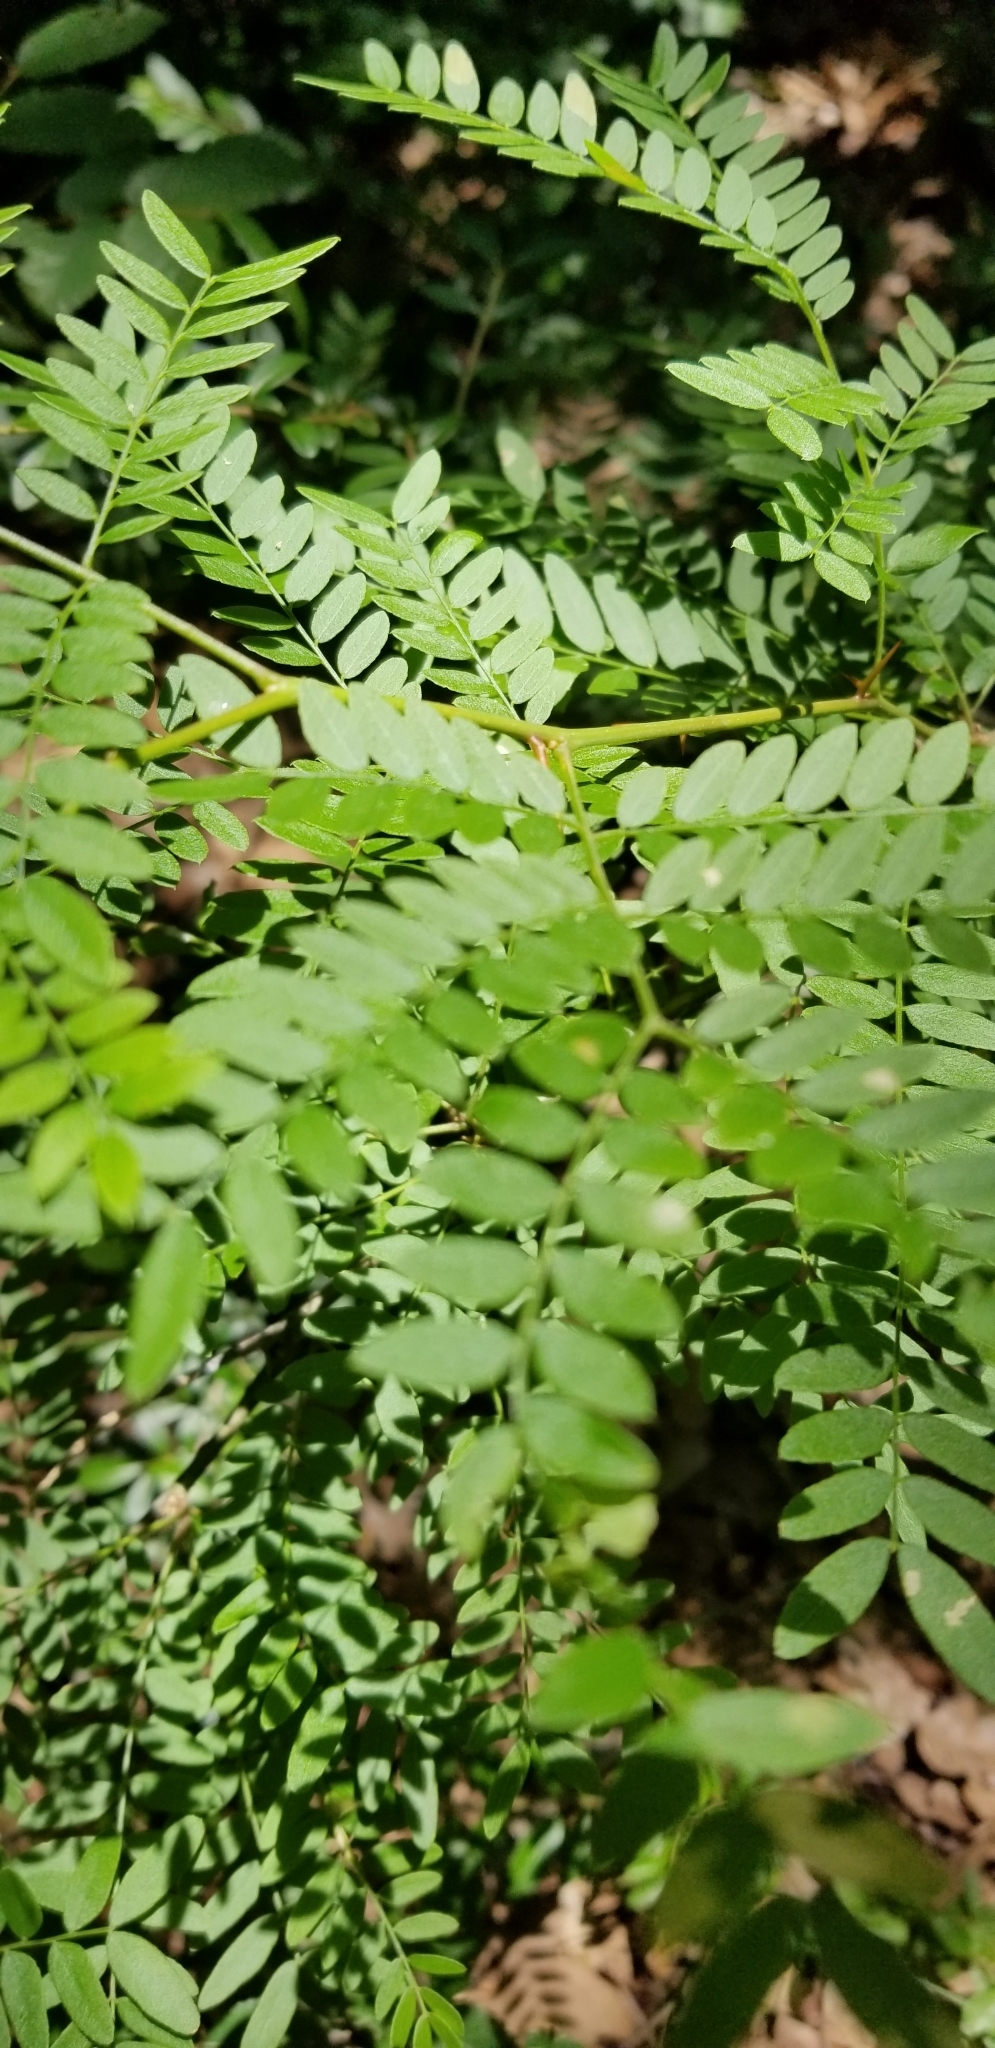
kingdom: Plantae
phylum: Tracheophyta
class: Magnoliopsida
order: Fabales
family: Fabaceae
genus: Gleditsia
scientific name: Gleditsia triacanthos
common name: Common honeylocust
